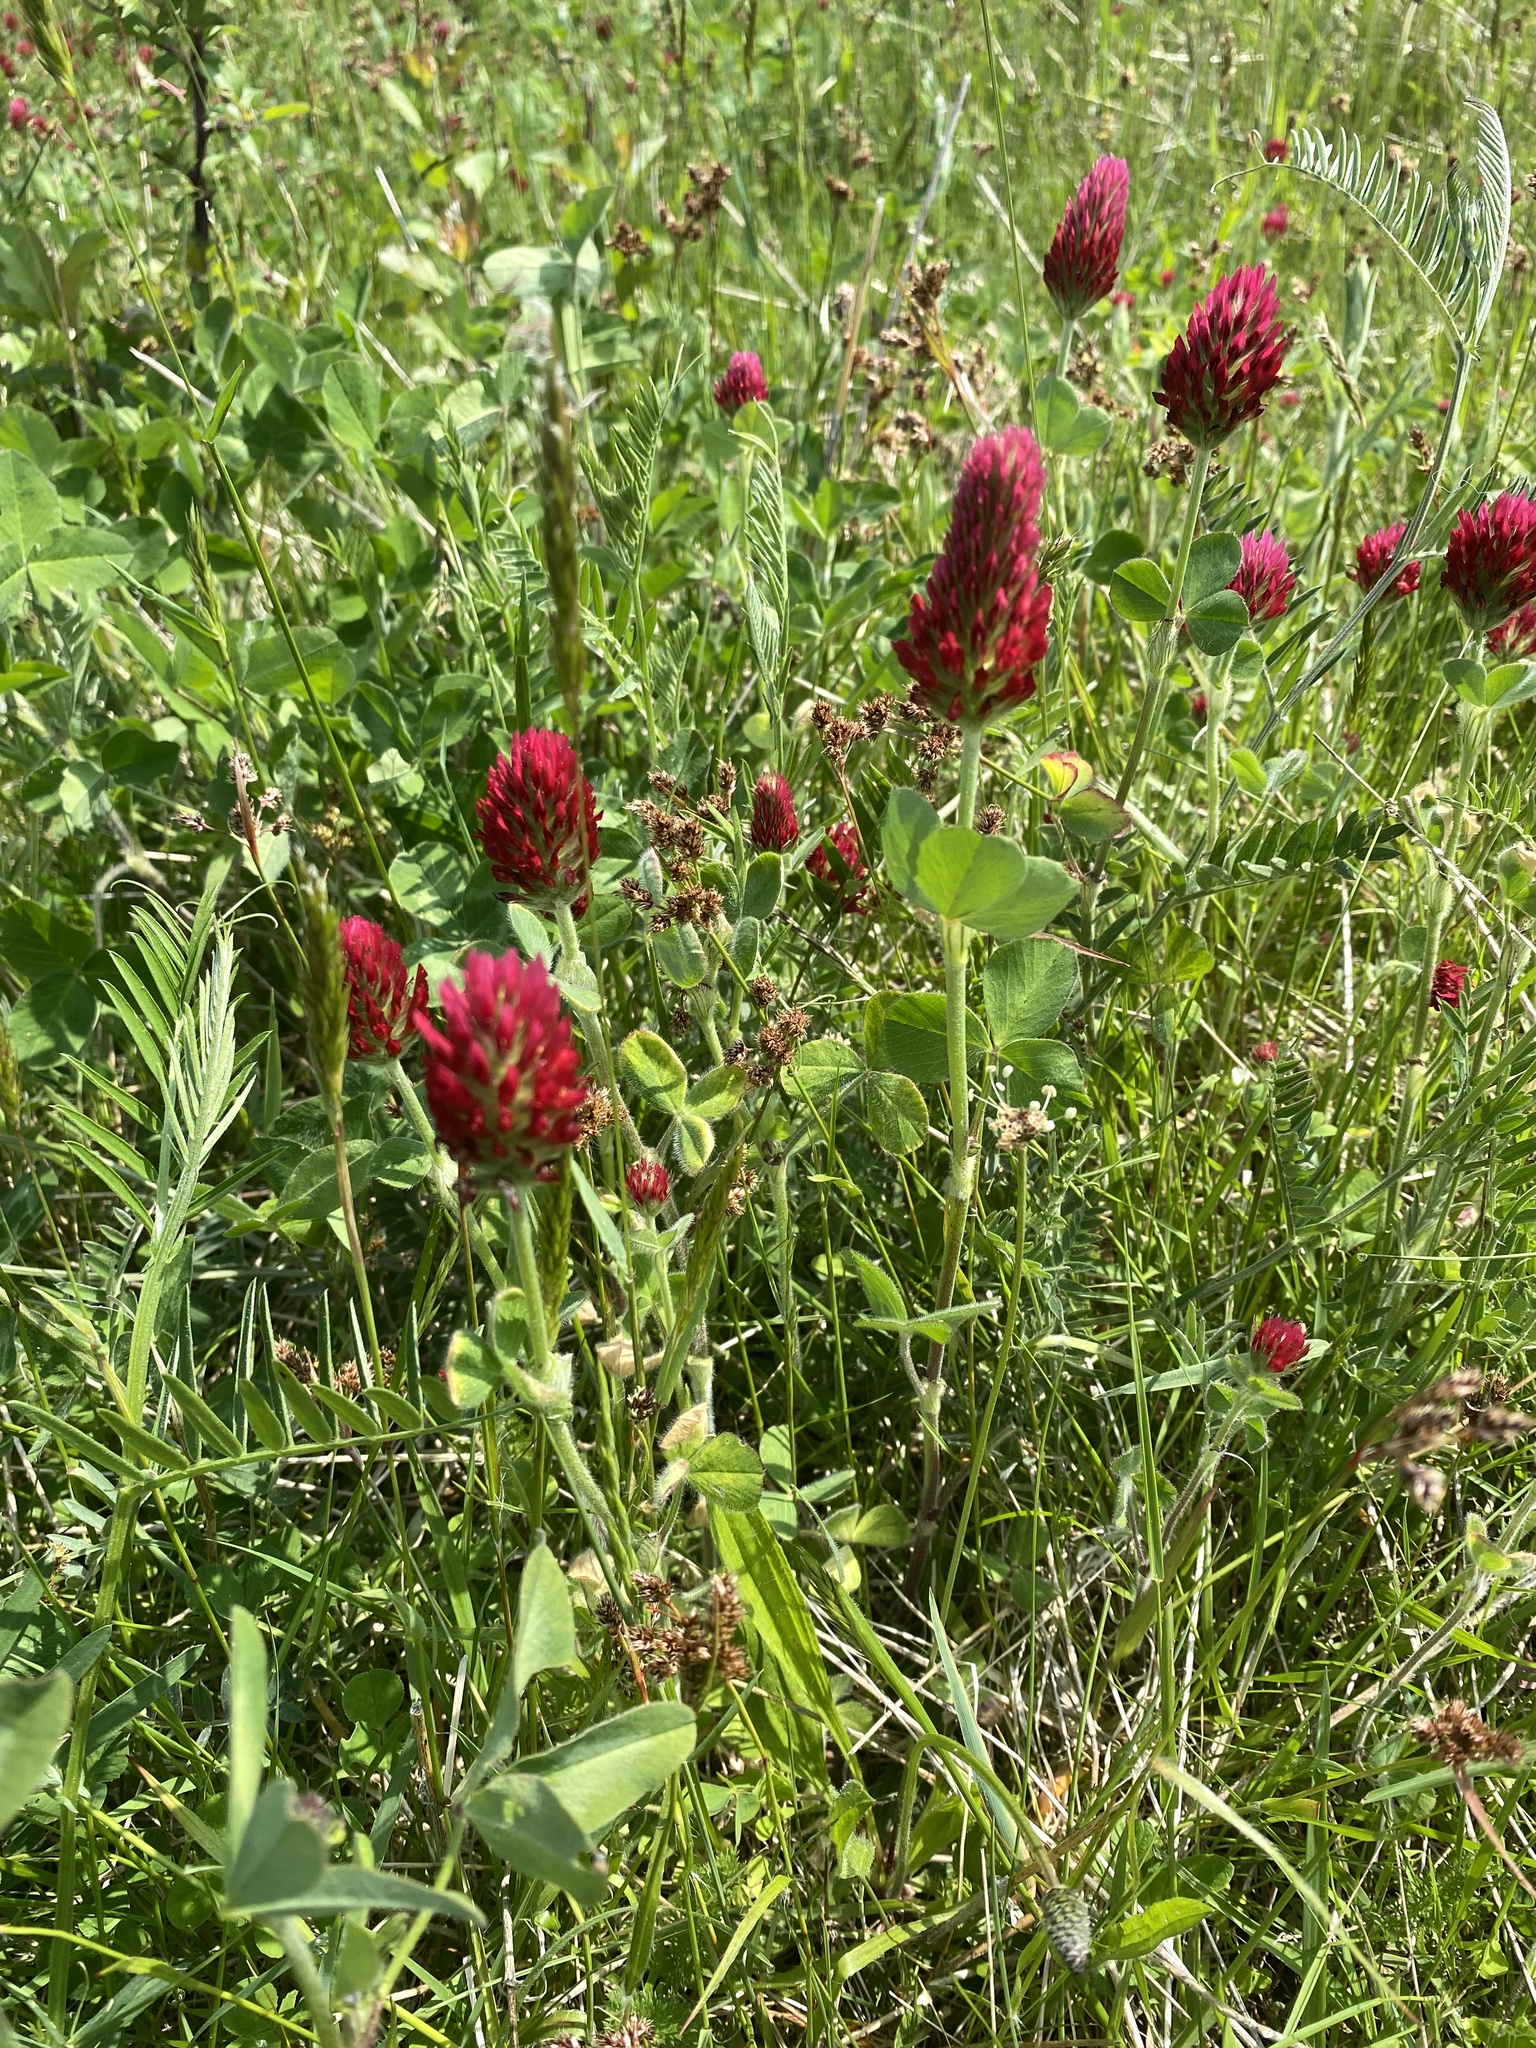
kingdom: Plantae
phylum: Tracheophyta
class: Magnoliopsida
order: Fabales
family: Fabaceae
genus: Trifolium
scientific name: Trifolium incarnatum
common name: Crimson clover
